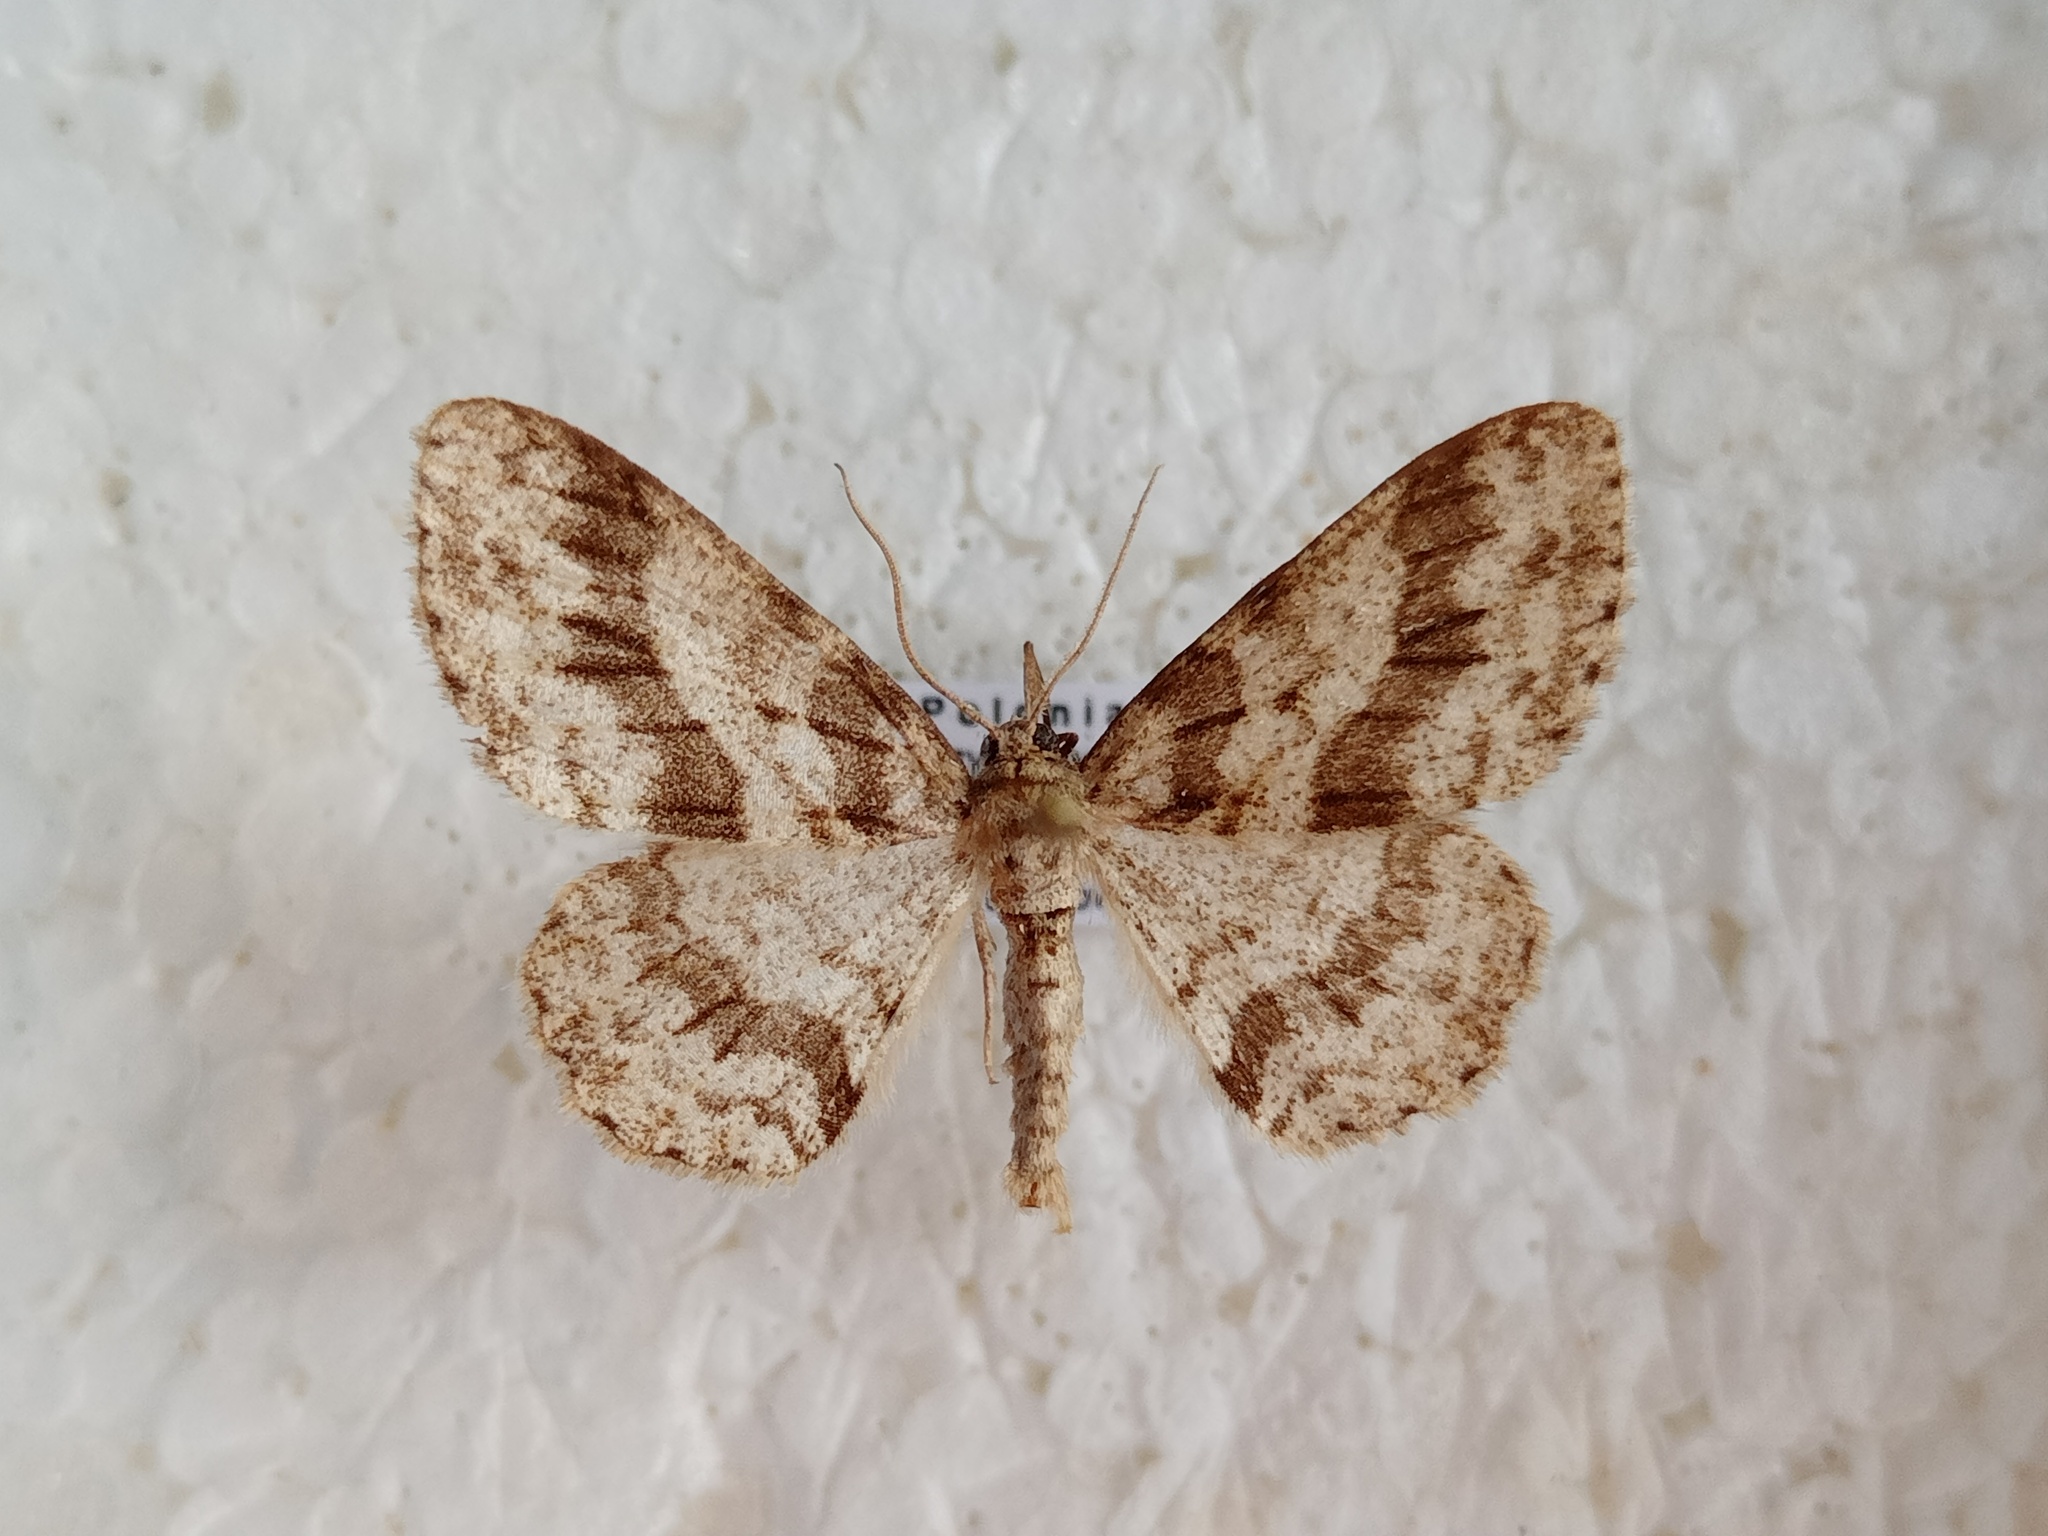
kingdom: Animalia
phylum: Arthropoda
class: Insecta
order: Lepidoptera
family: Geometridae
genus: Ectropis
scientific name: Ectropis crepuscularia
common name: Engrailed
